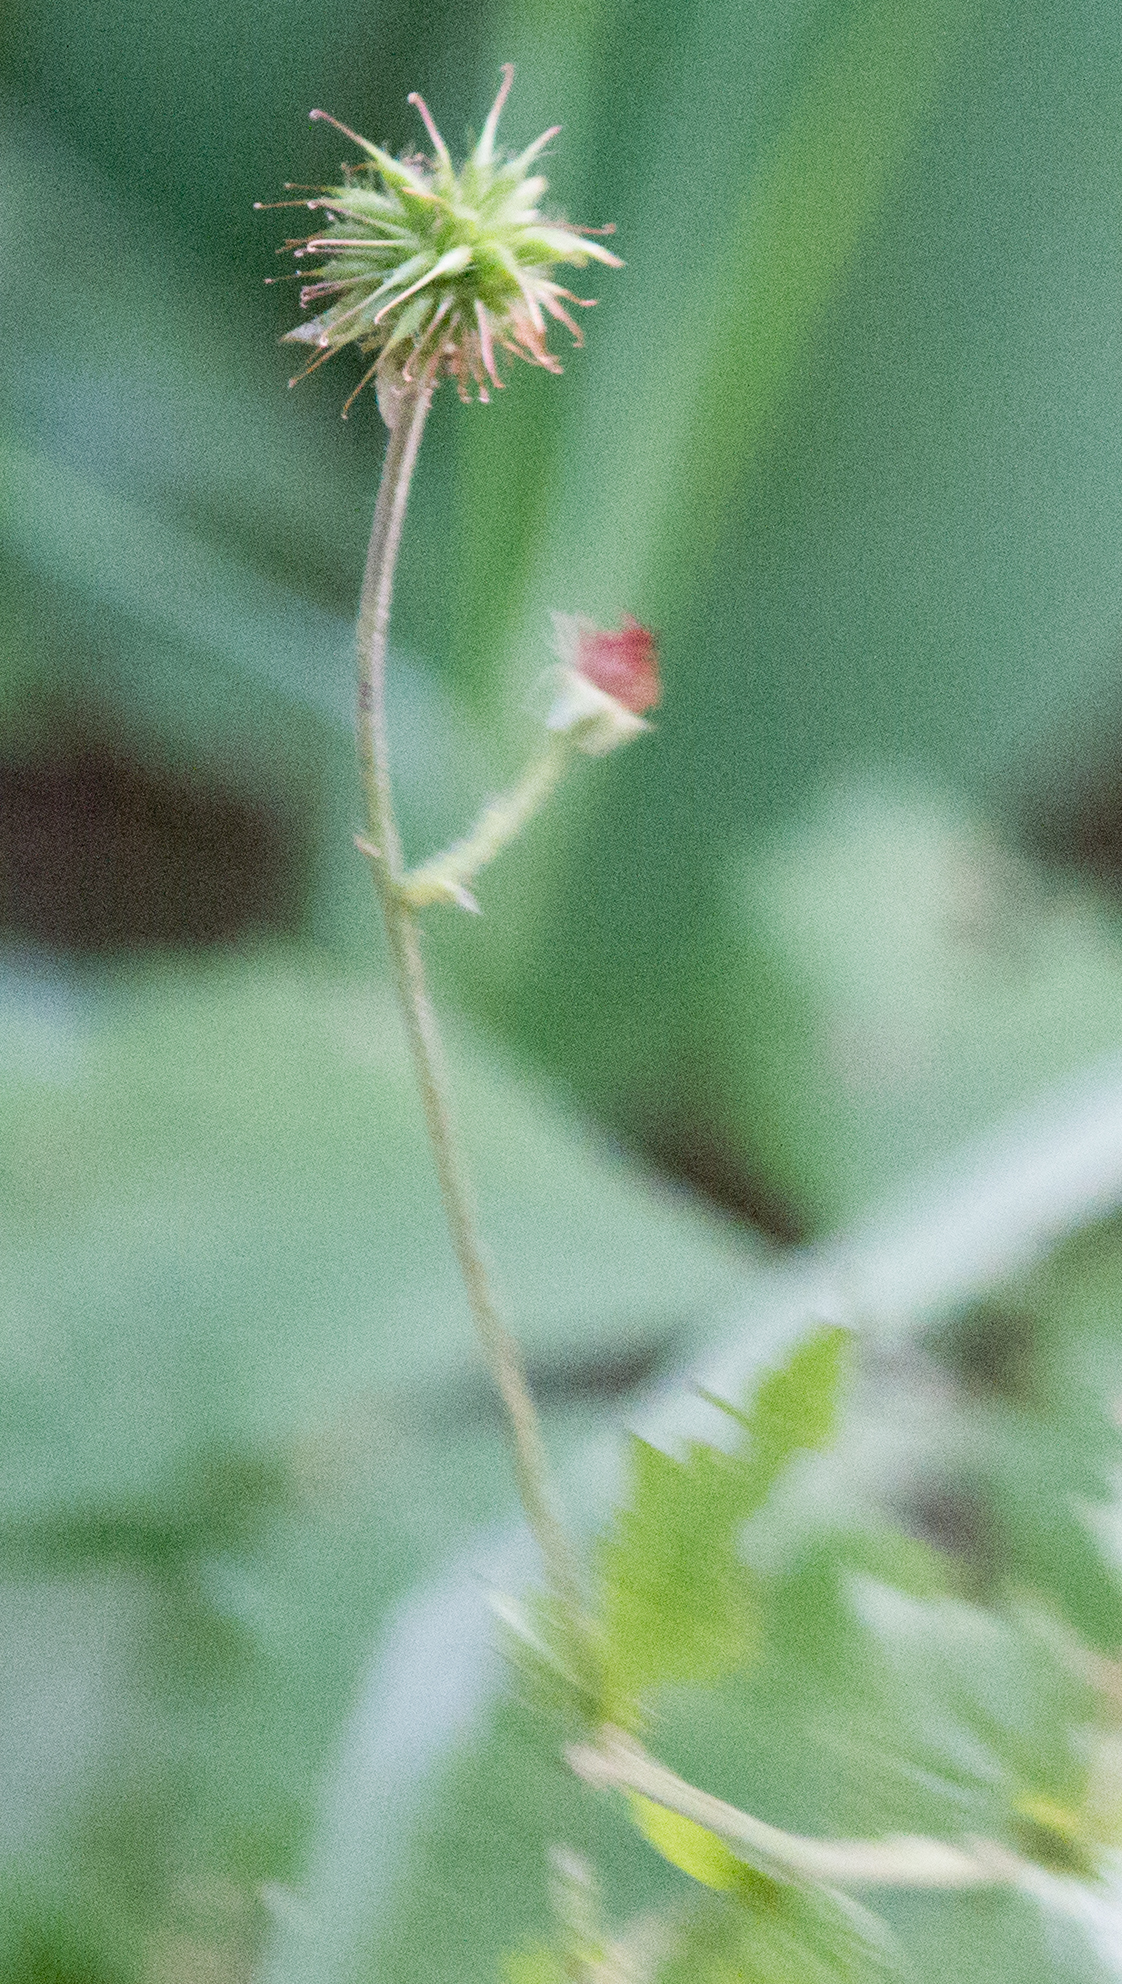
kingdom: Plantae
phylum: Tracheophyta
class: Magnoliopsida
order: Rosales
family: Rosaceae
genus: Geum
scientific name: Geum urbanum
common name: Wood avens
